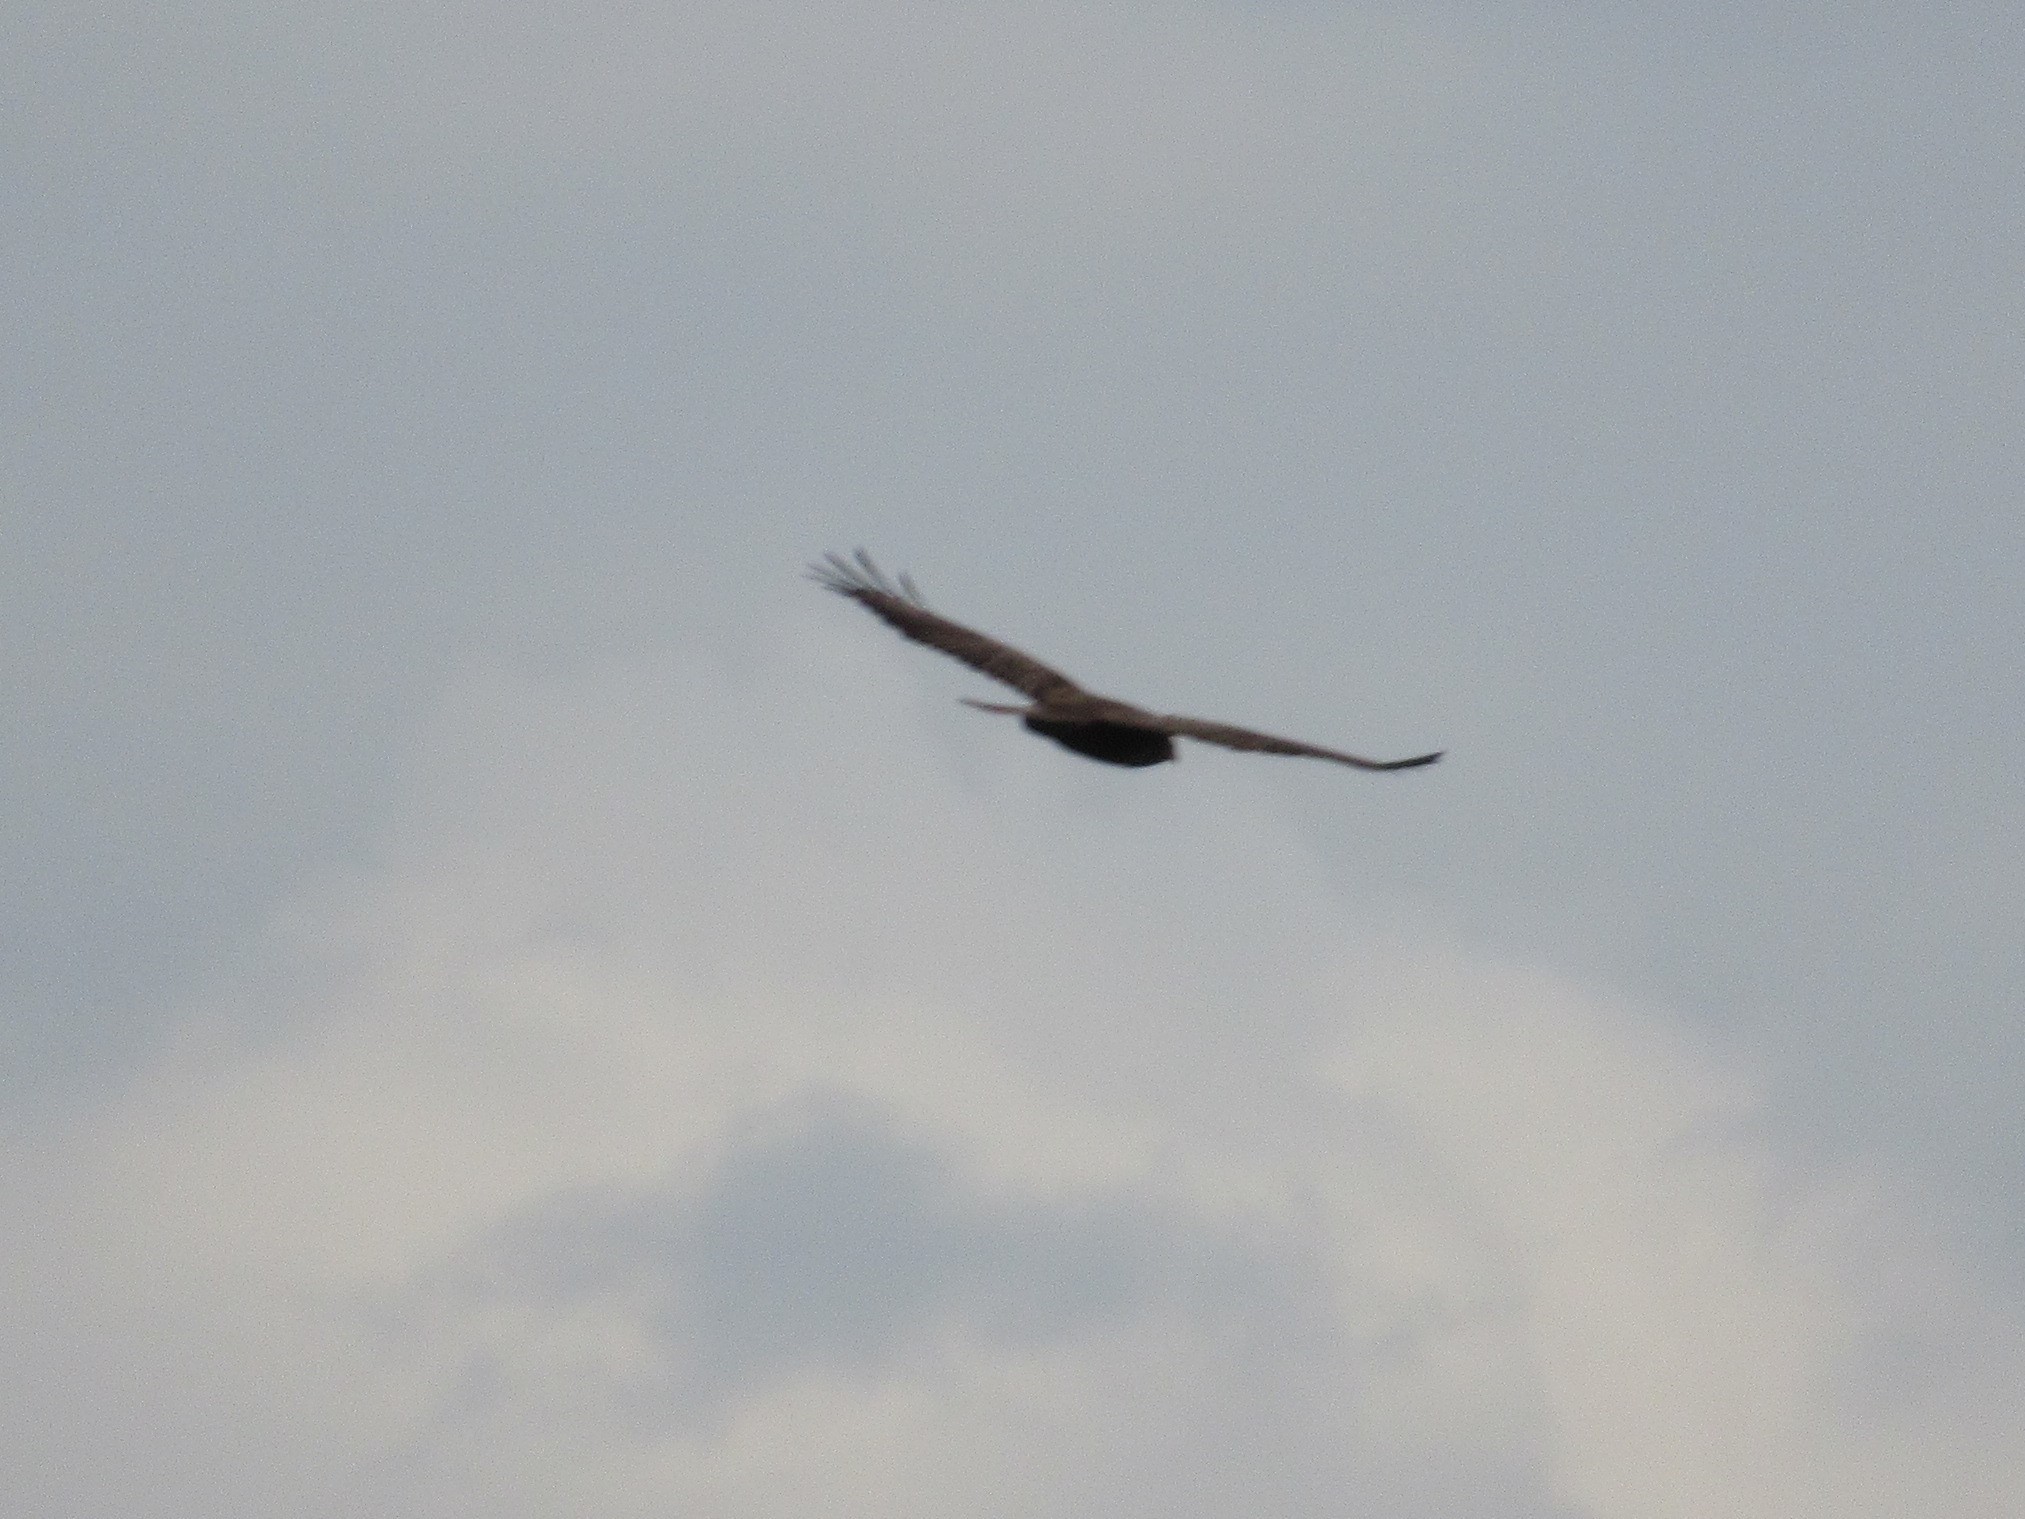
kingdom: Animalia
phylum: Chordata
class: Aves
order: Accipitriformes
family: Accipitridae
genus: Buteo
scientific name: Buteo buteo
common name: Common buzzard
